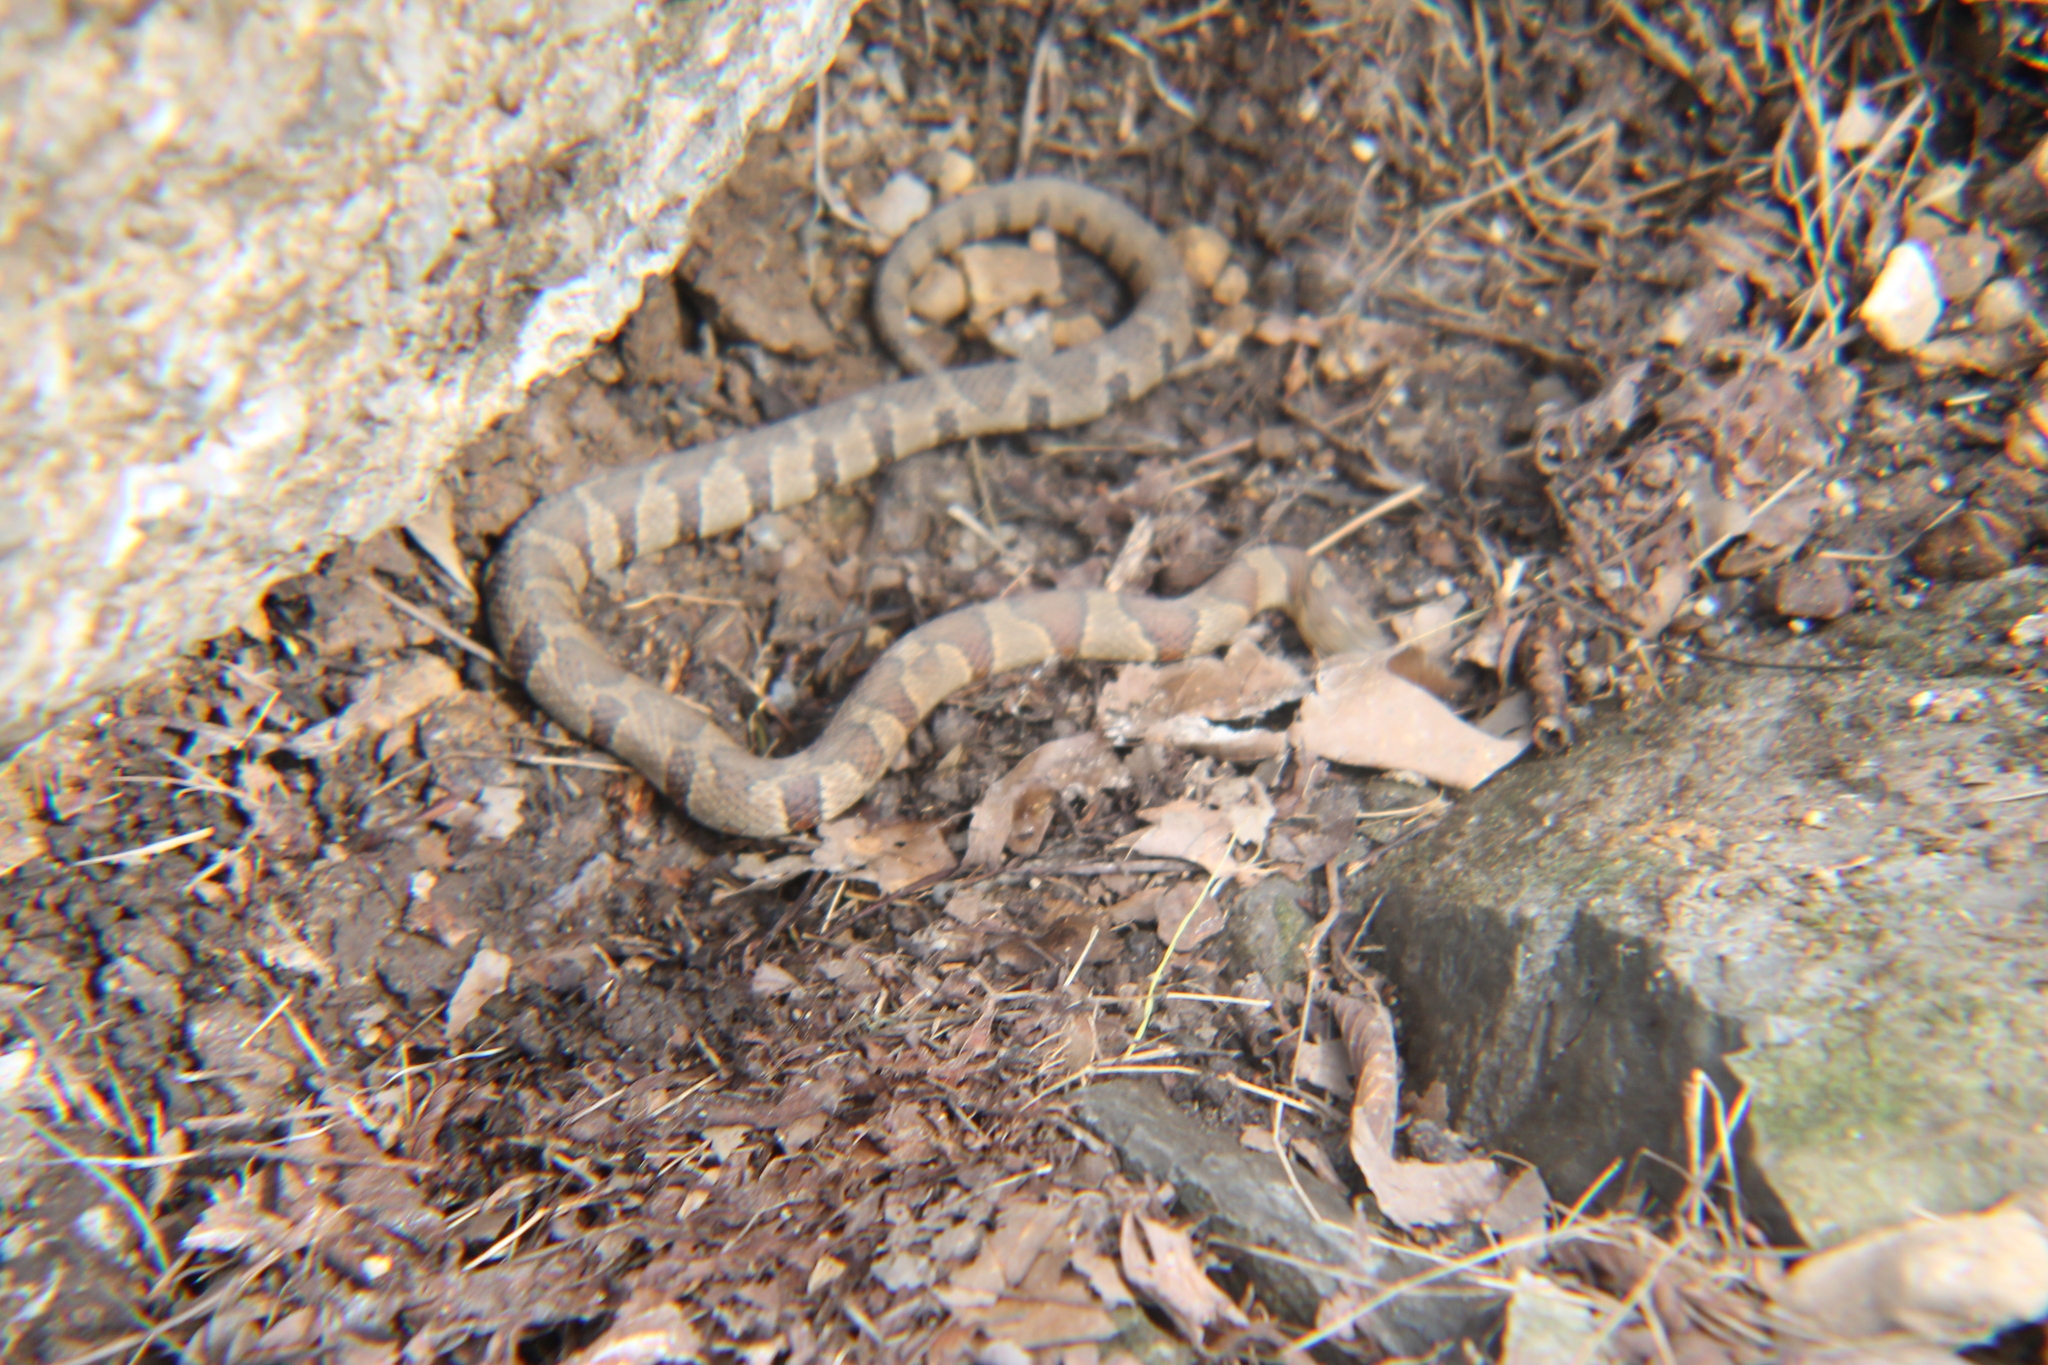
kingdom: Animalia
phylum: Chordata
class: Squamata
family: Colubridae
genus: Nerodia
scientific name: Nerodia sipedon
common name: Northern water snake
